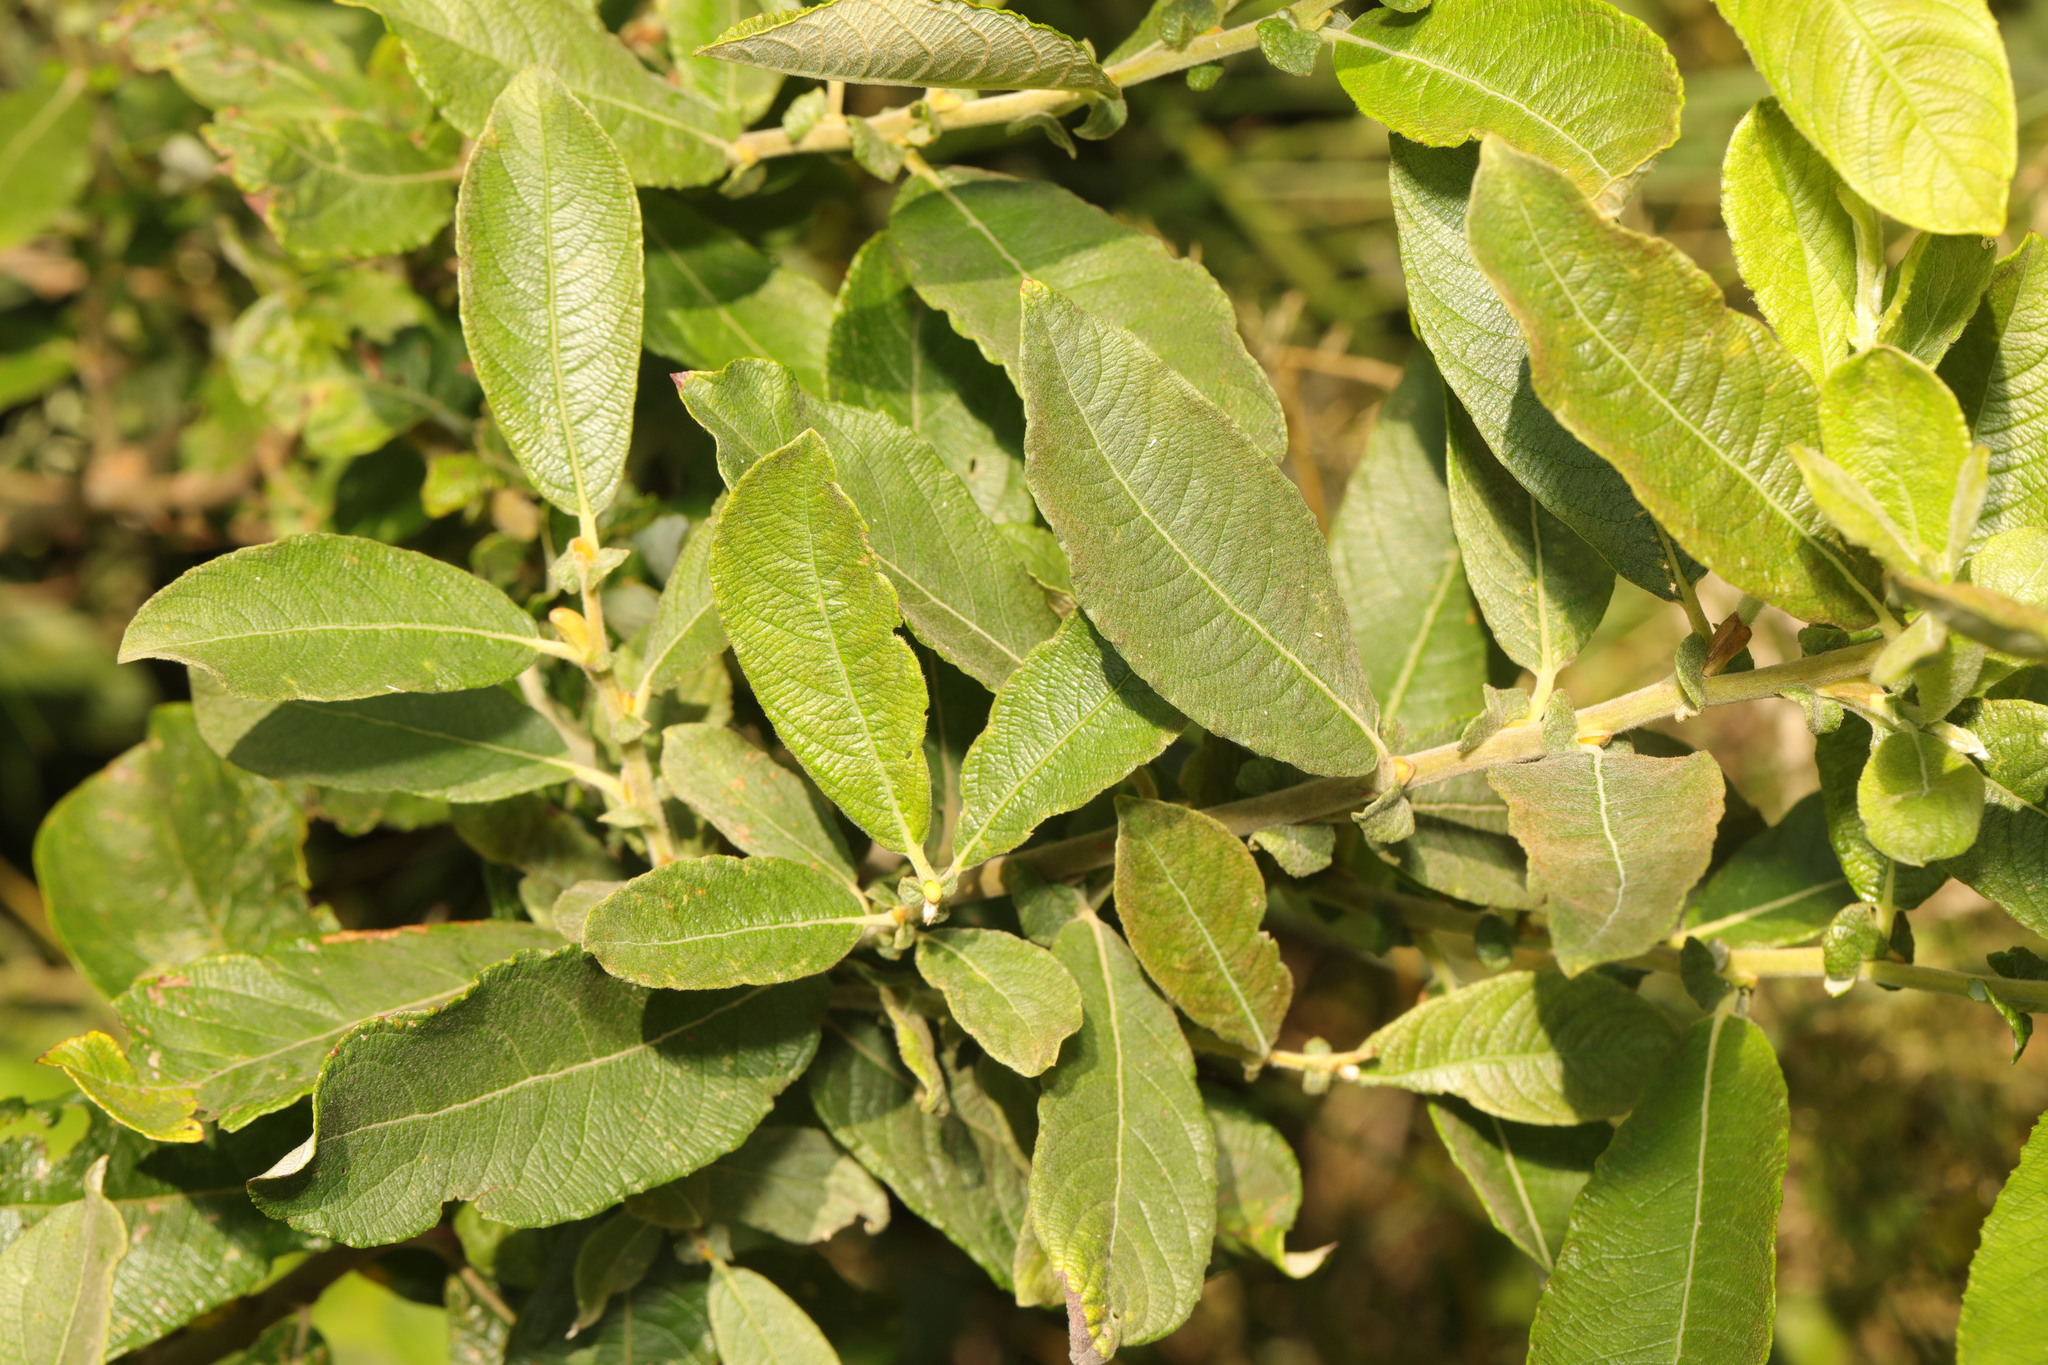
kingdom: Plantae
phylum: Tracheophyta
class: Magnoliopsida
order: Malpighiales
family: Salicaceae
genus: Salix
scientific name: Salix cinerea
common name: Common sallow
